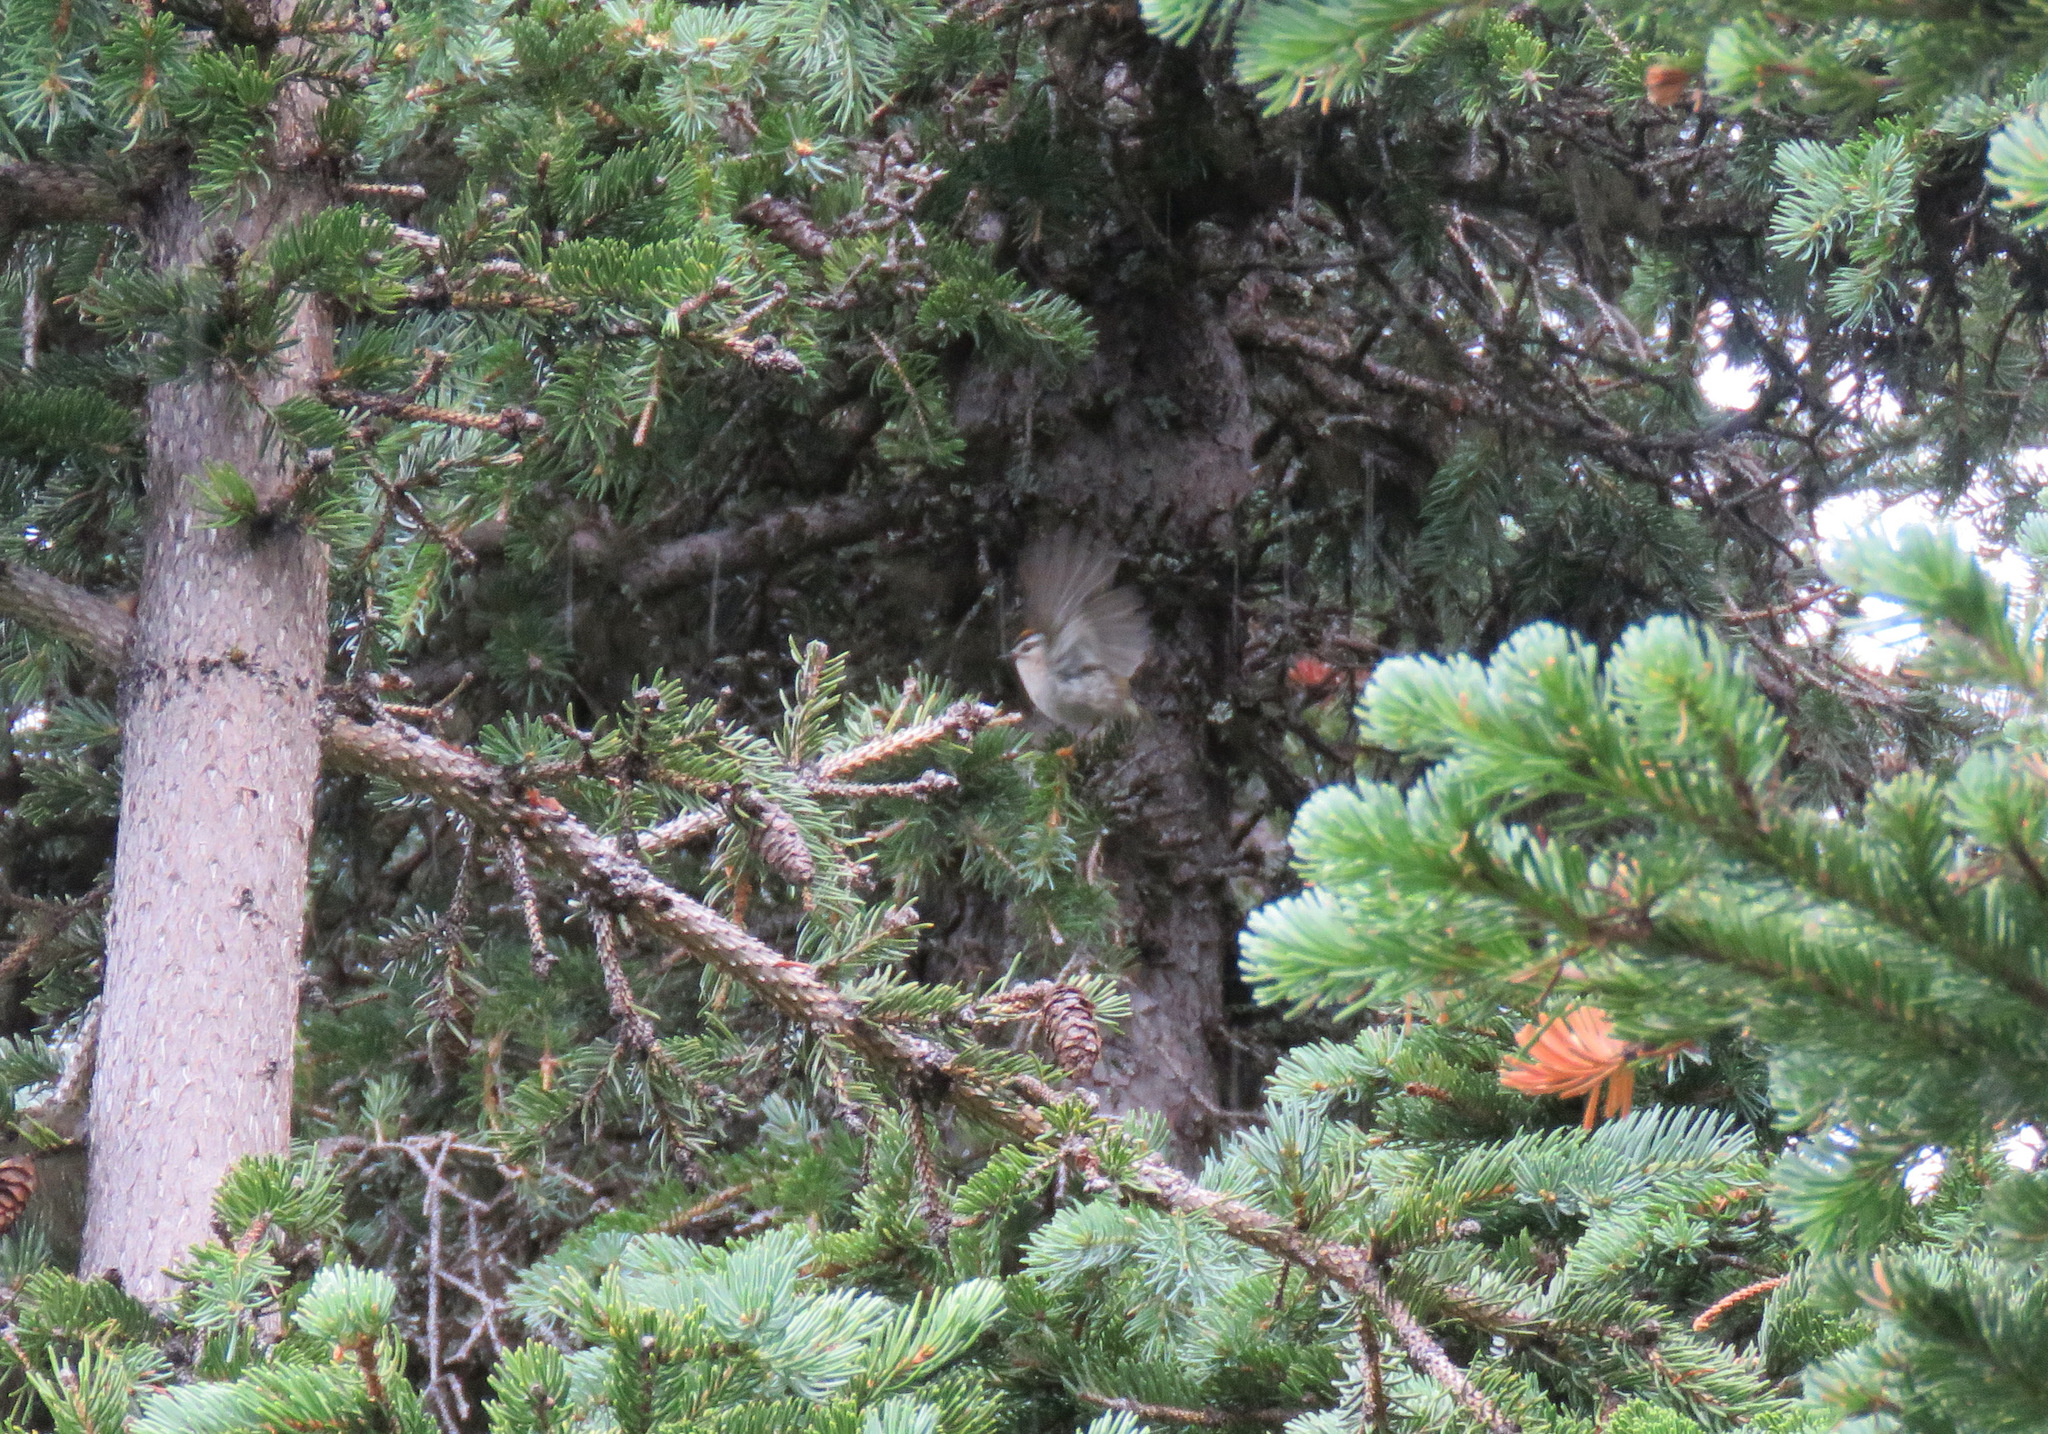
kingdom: Animalia
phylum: Chordata
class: Aves
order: Passeriformes
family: Regulidae
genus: Regulus
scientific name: Regulus satrapa
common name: Golden-crowned kinglet
